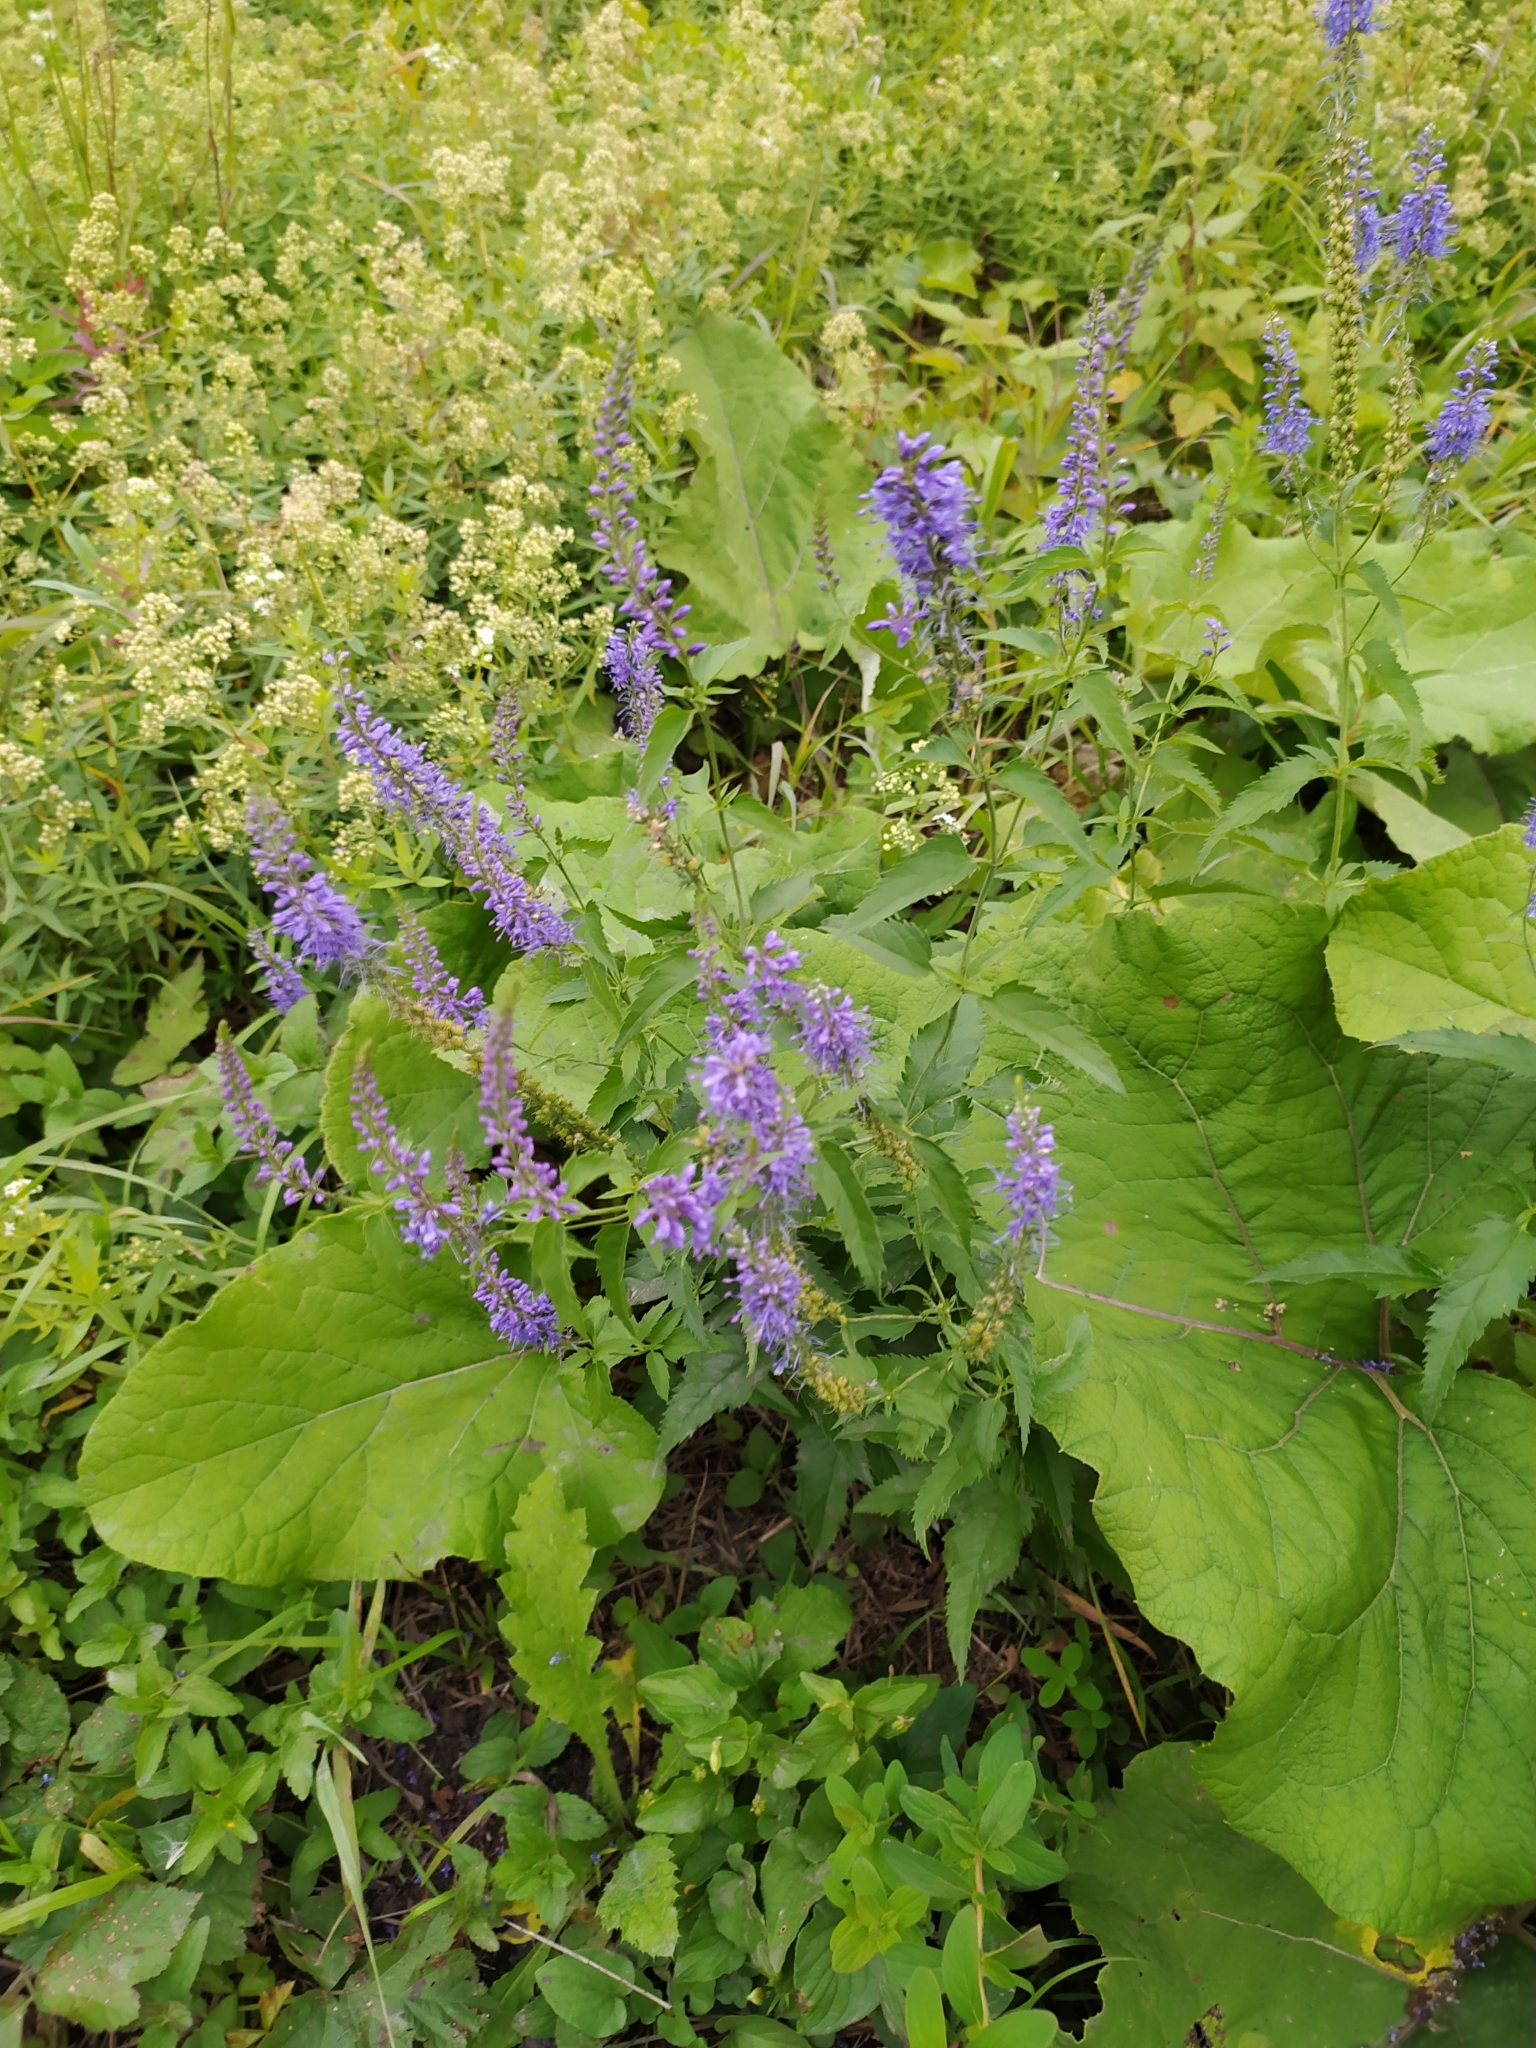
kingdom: Plantae
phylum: Tracheophyta
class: Magnoliopsida
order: Lamiales
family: Plantaginaceae
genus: Veronica
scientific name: Veronica longifolia
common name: Garden speedwell
